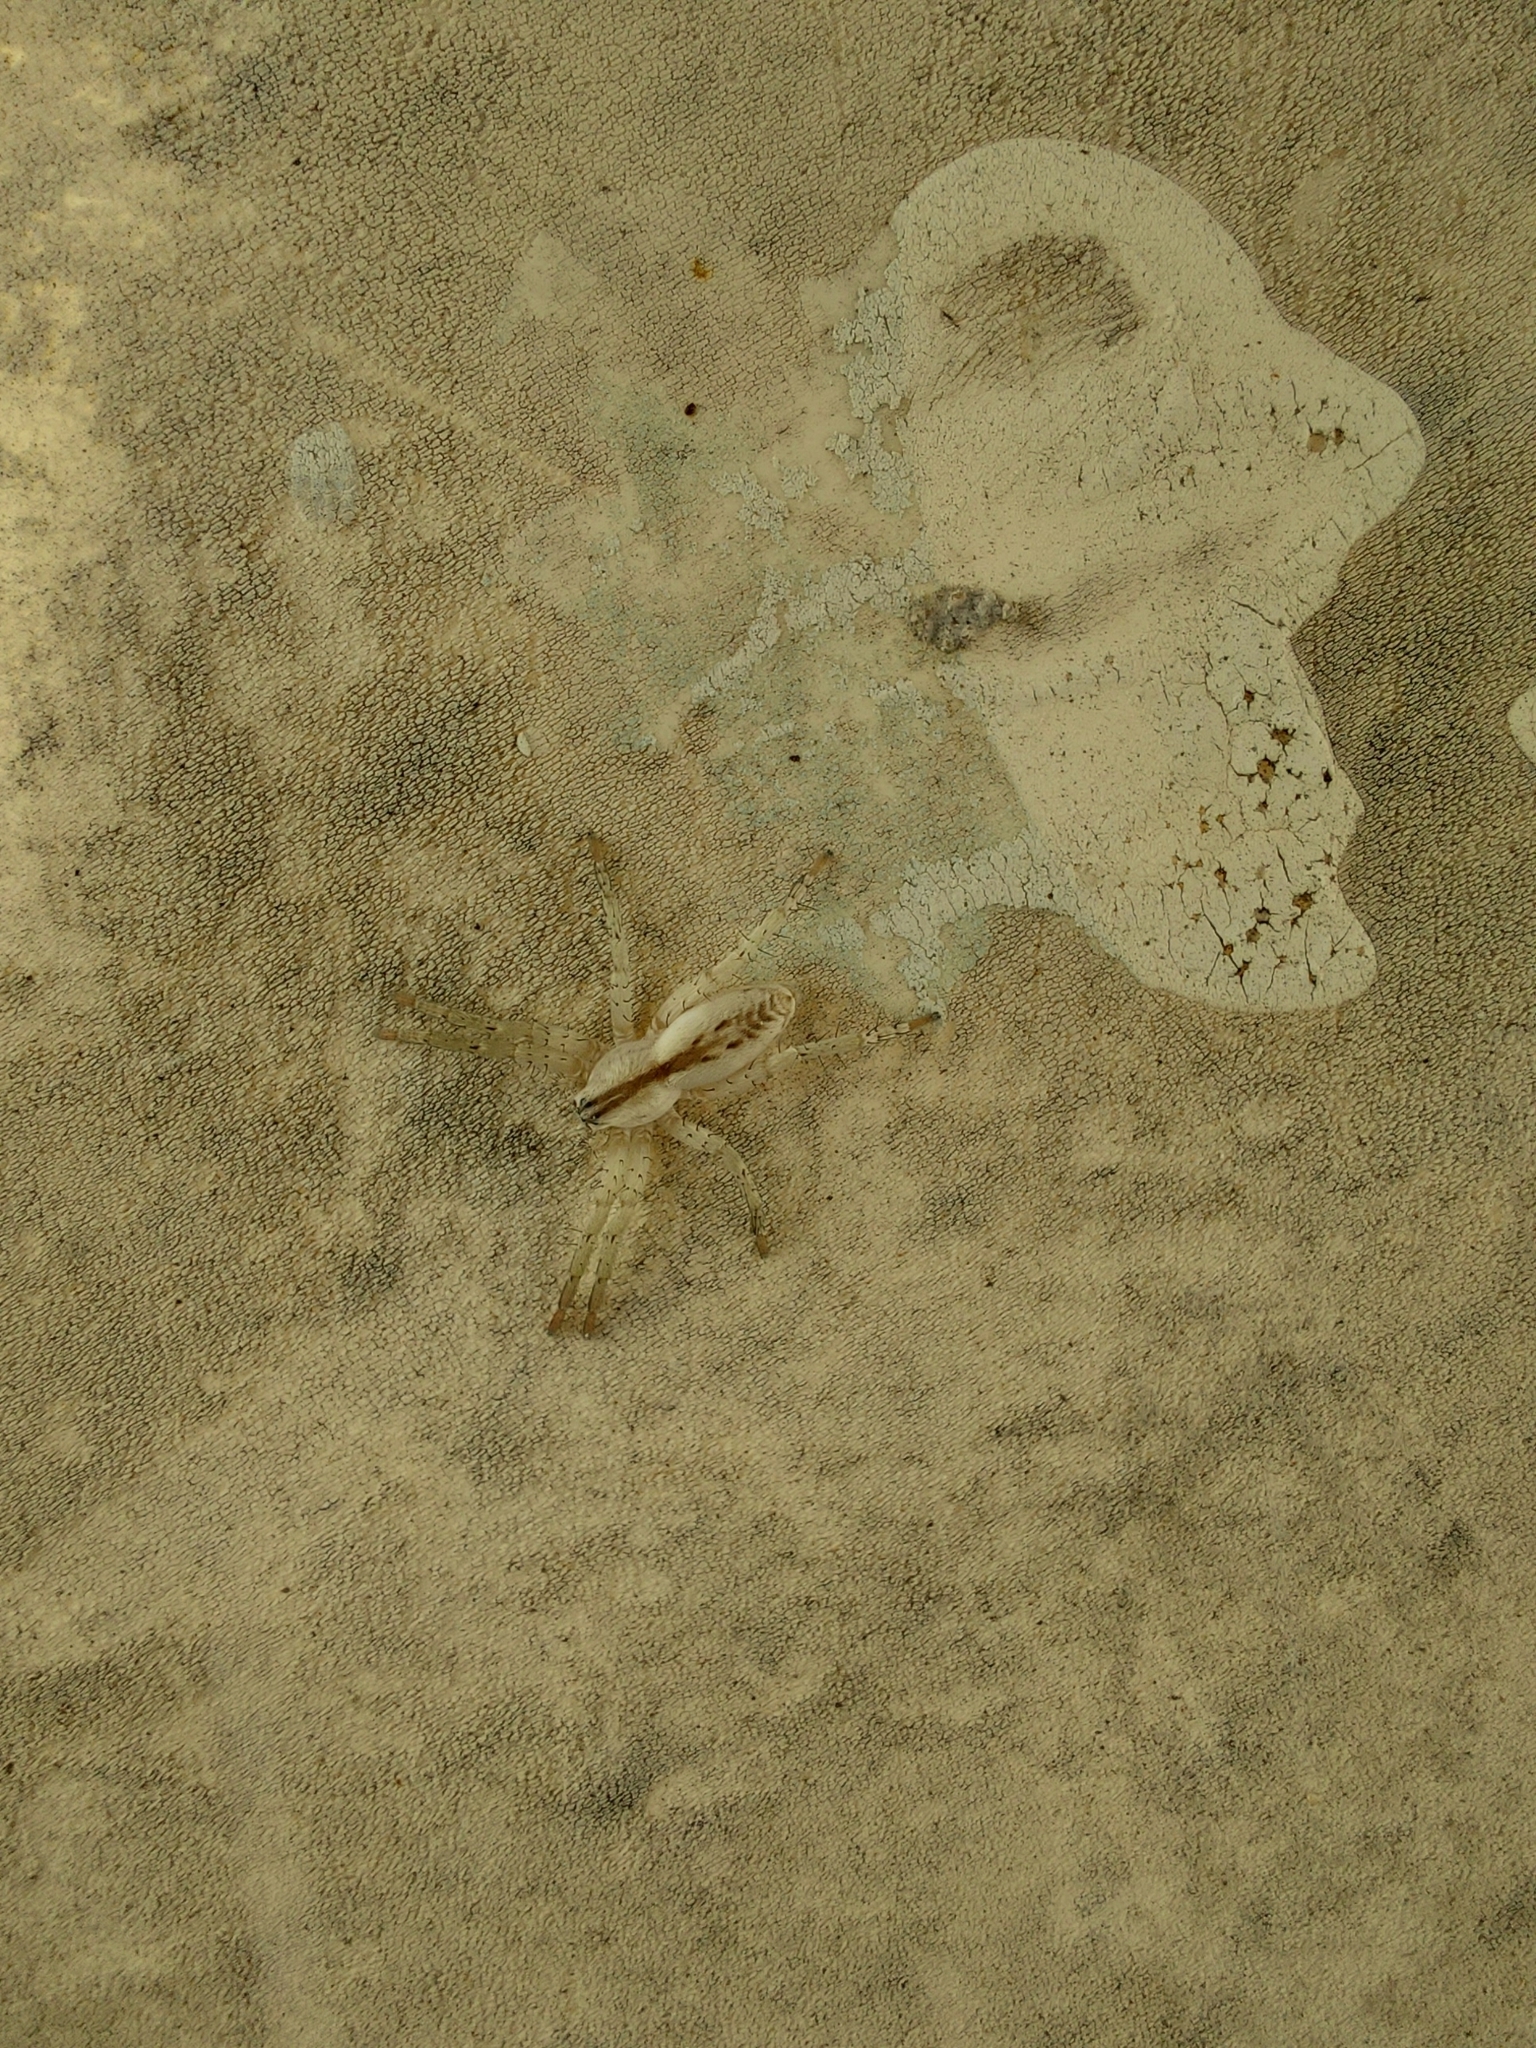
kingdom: Animalia
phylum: Arthropoda
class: Arachnida
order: Araneae
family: Anyphaenidae
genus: Arachosia
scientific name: Arachosia praesignis
